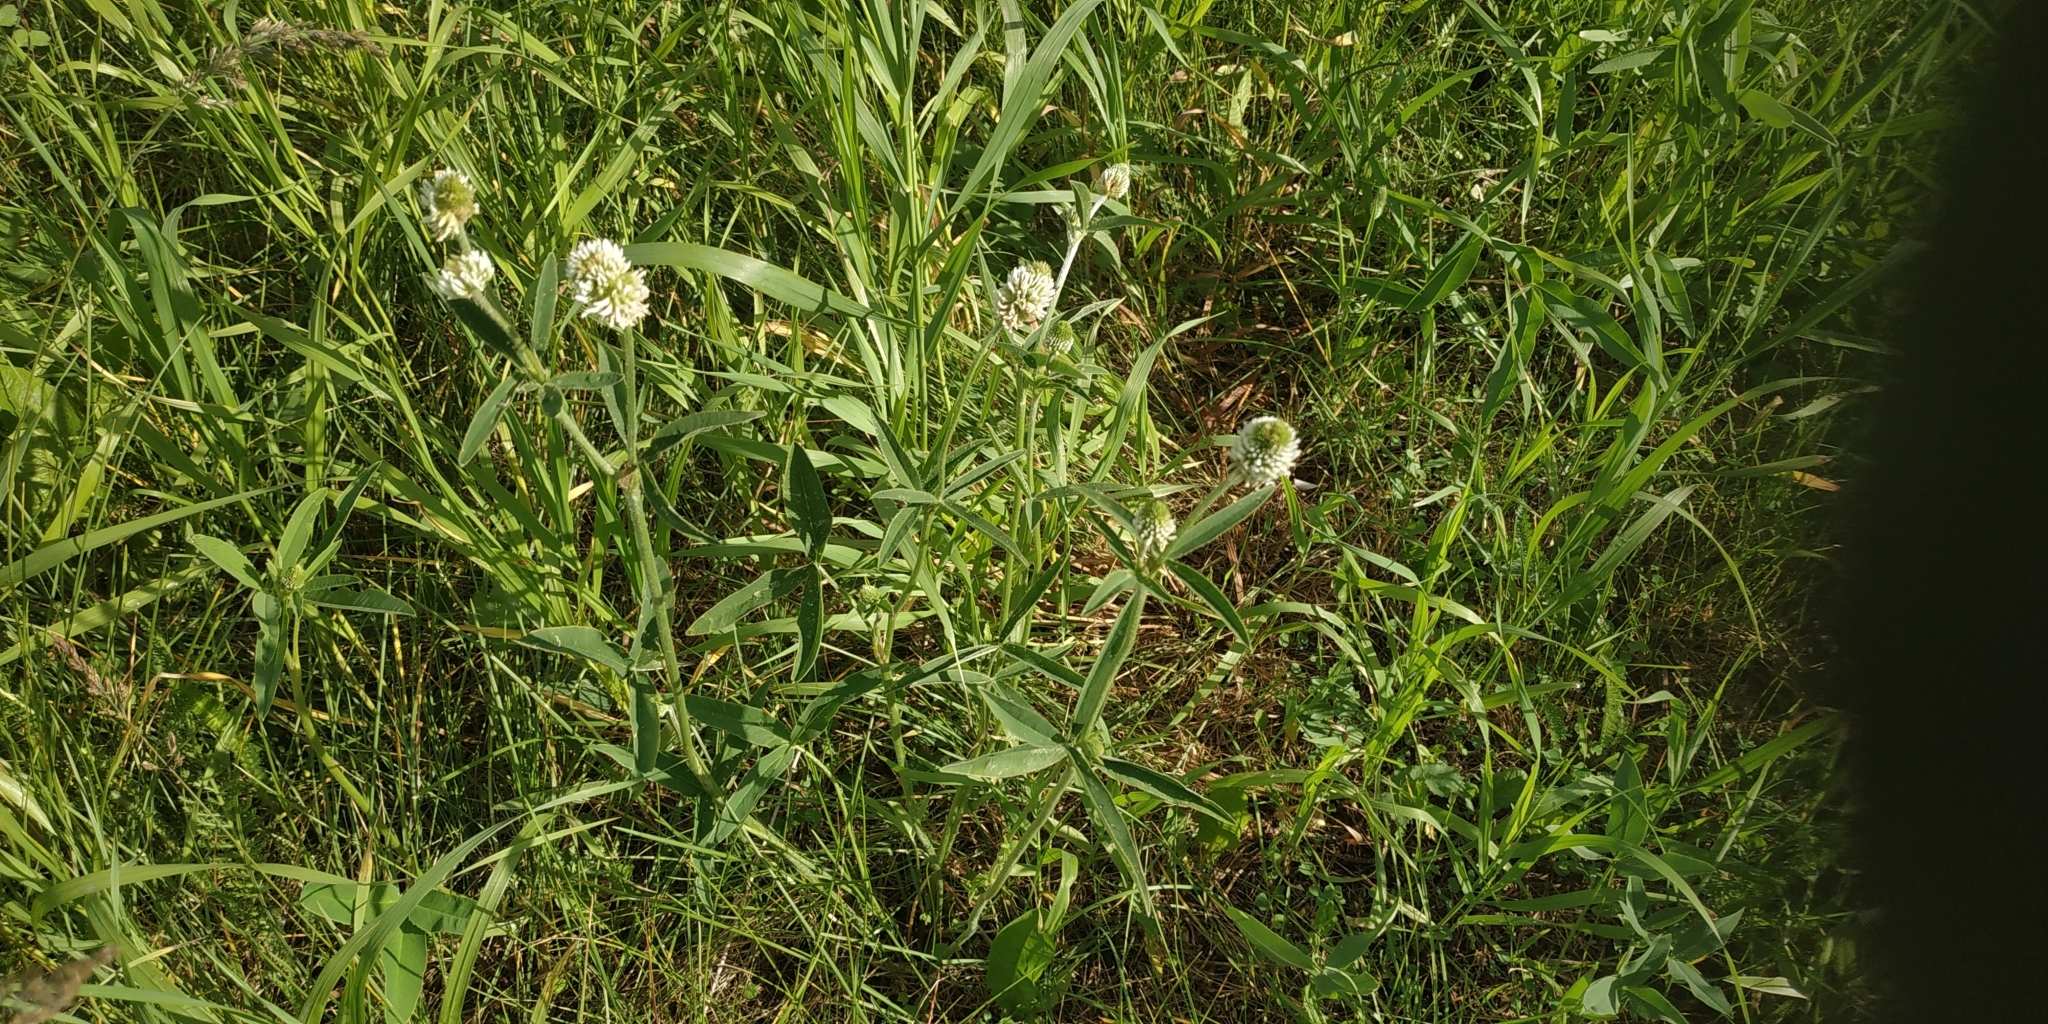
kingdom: Plantae
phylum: Tracheophyta
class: Magnoliopsida
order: Fabales
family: Fabaceae
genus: Trifolium
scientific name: Trifolium montanum
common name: Mountain clover
